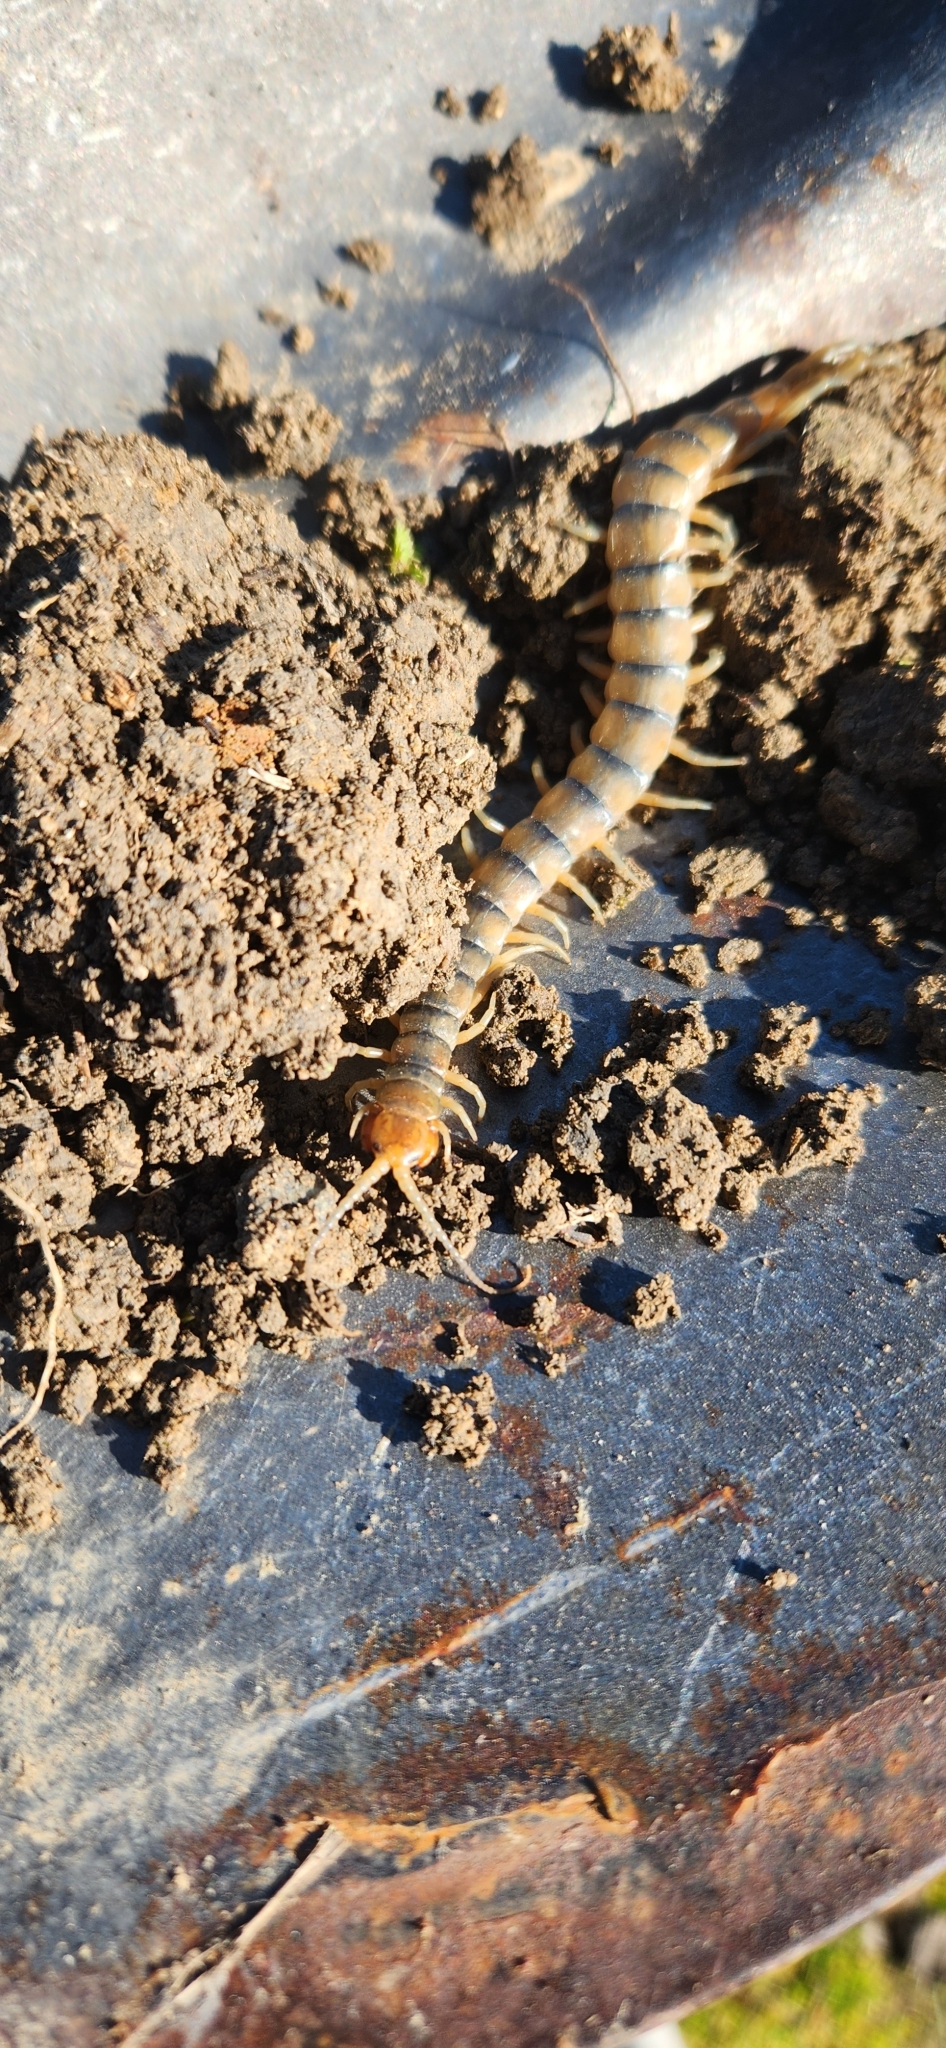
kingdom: Animalia
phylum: Arthropoda
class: Chilopoda
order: Scolopendromorpha
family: Scolopendridae
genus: Scolopendra
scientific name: Scolopendra polymorpha
